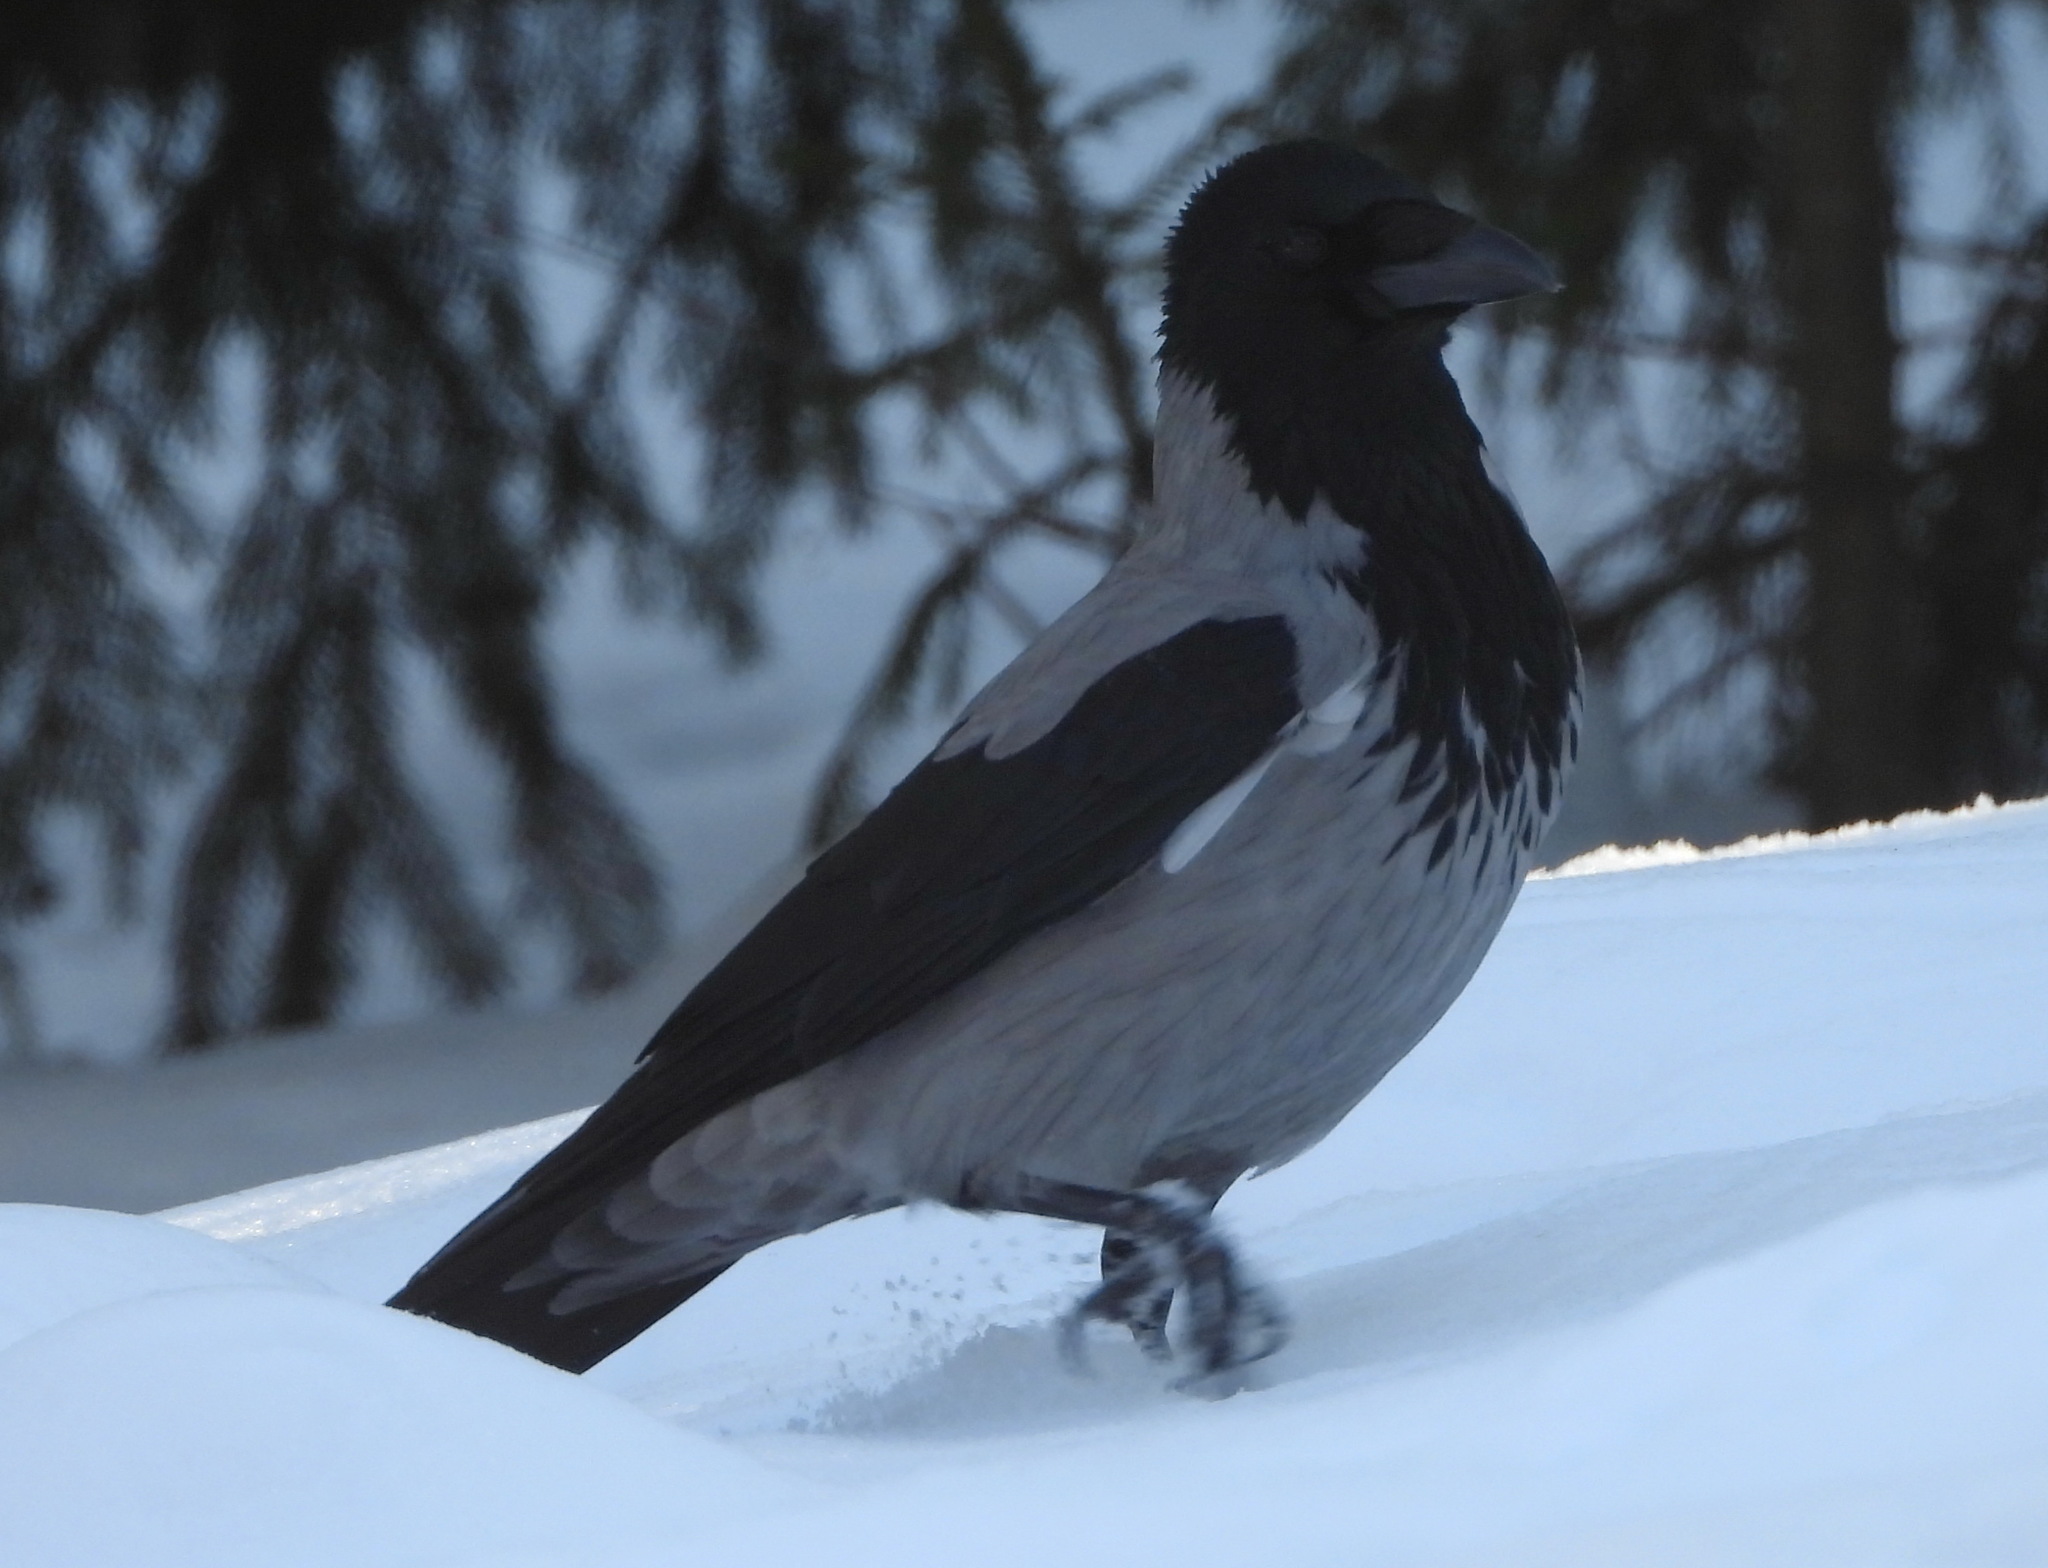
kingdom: Animalia
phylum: Chordata
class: Aves
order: Passeriformes
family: Corvidae
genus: Corvus
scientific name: Corvus cornix
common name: Hooded crow
